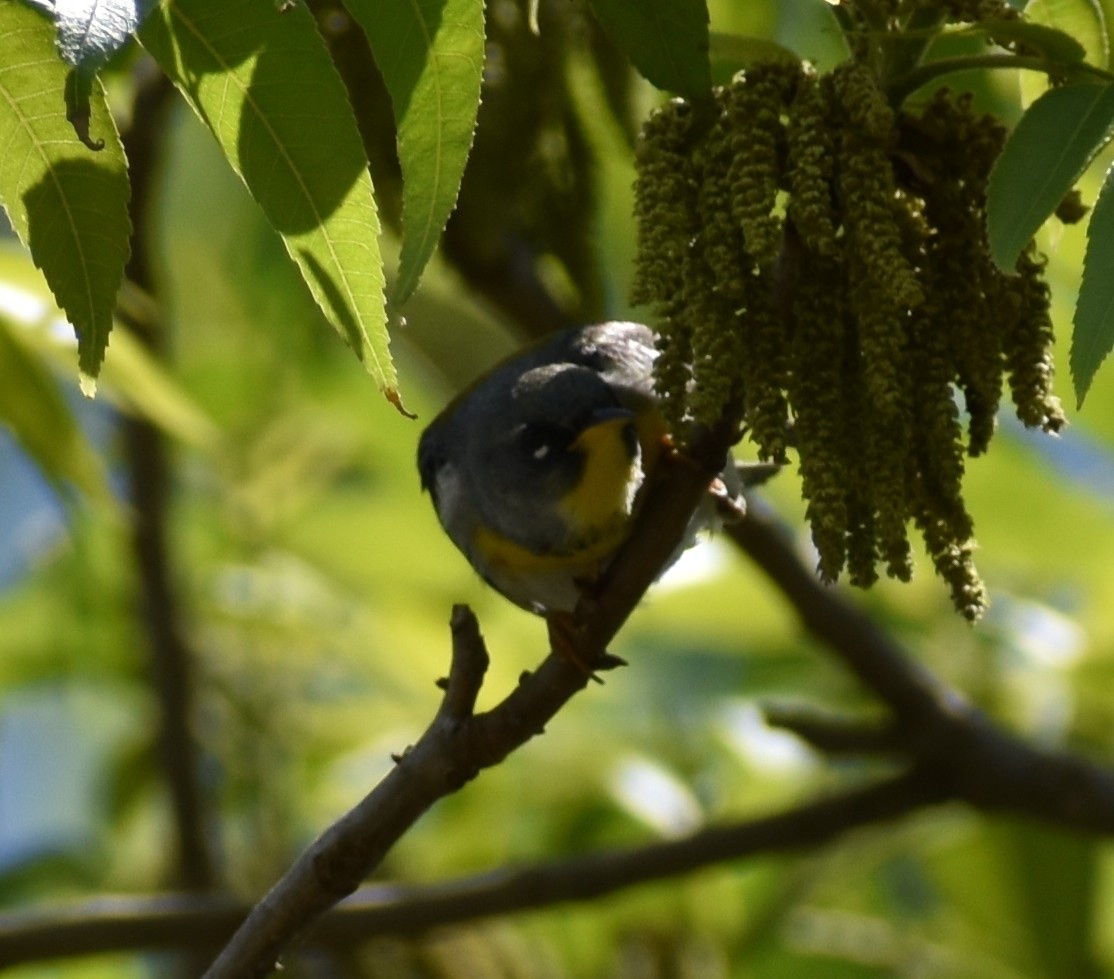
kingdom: Animalia
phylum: Chordata
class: Aves
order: Passeriformes
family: Parulidae
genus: Setophaga
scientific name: Setophaga americana
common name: Northern parula
